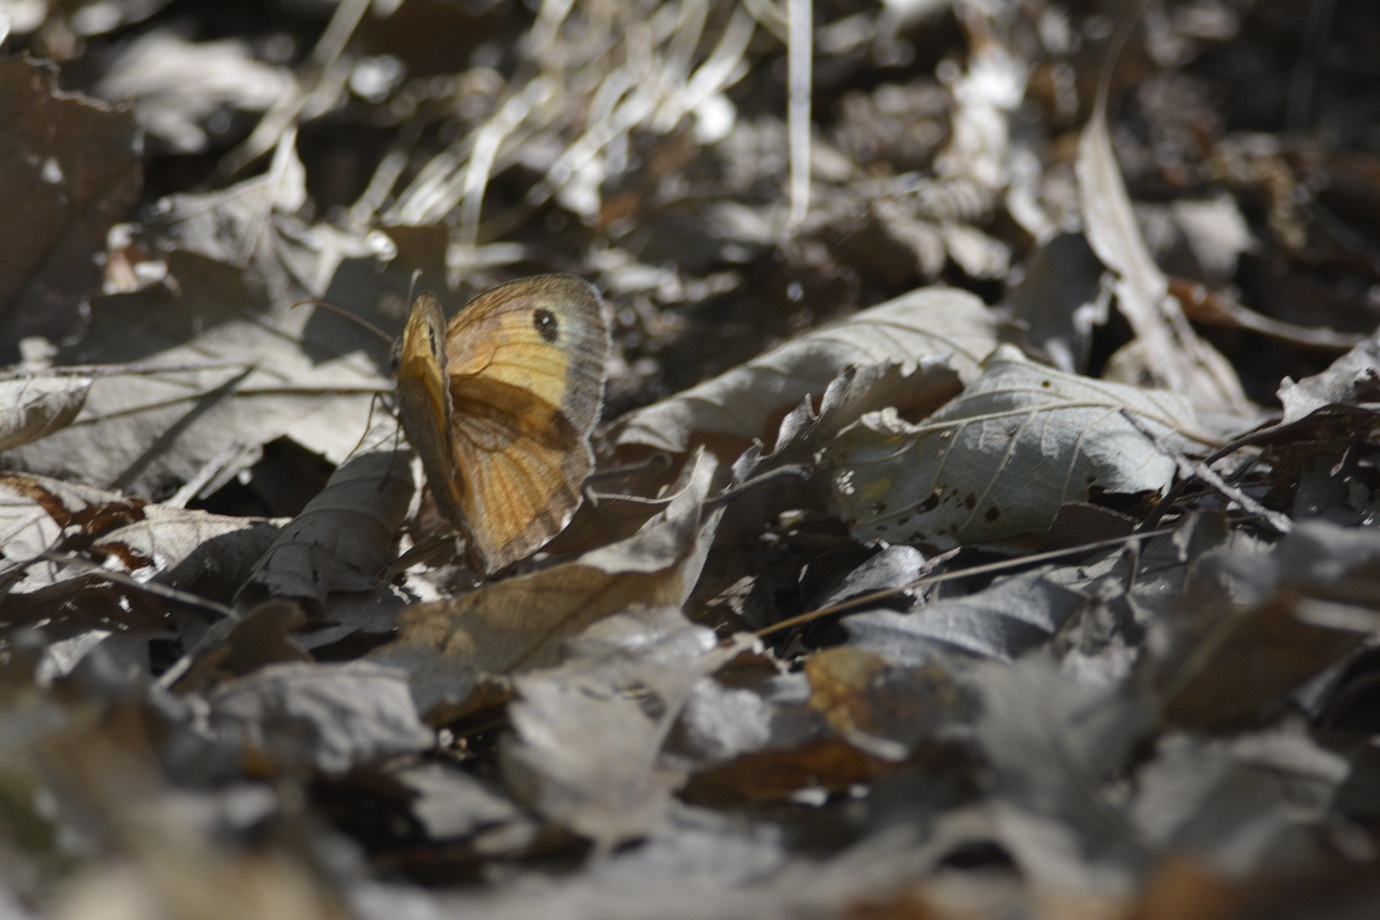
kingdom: Animalia
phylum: Arthropoda
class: Insecta
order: Lepidoptera
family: Nymphalidae
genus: Maniola
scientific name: Maniola jurtina
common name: Meadow brown
